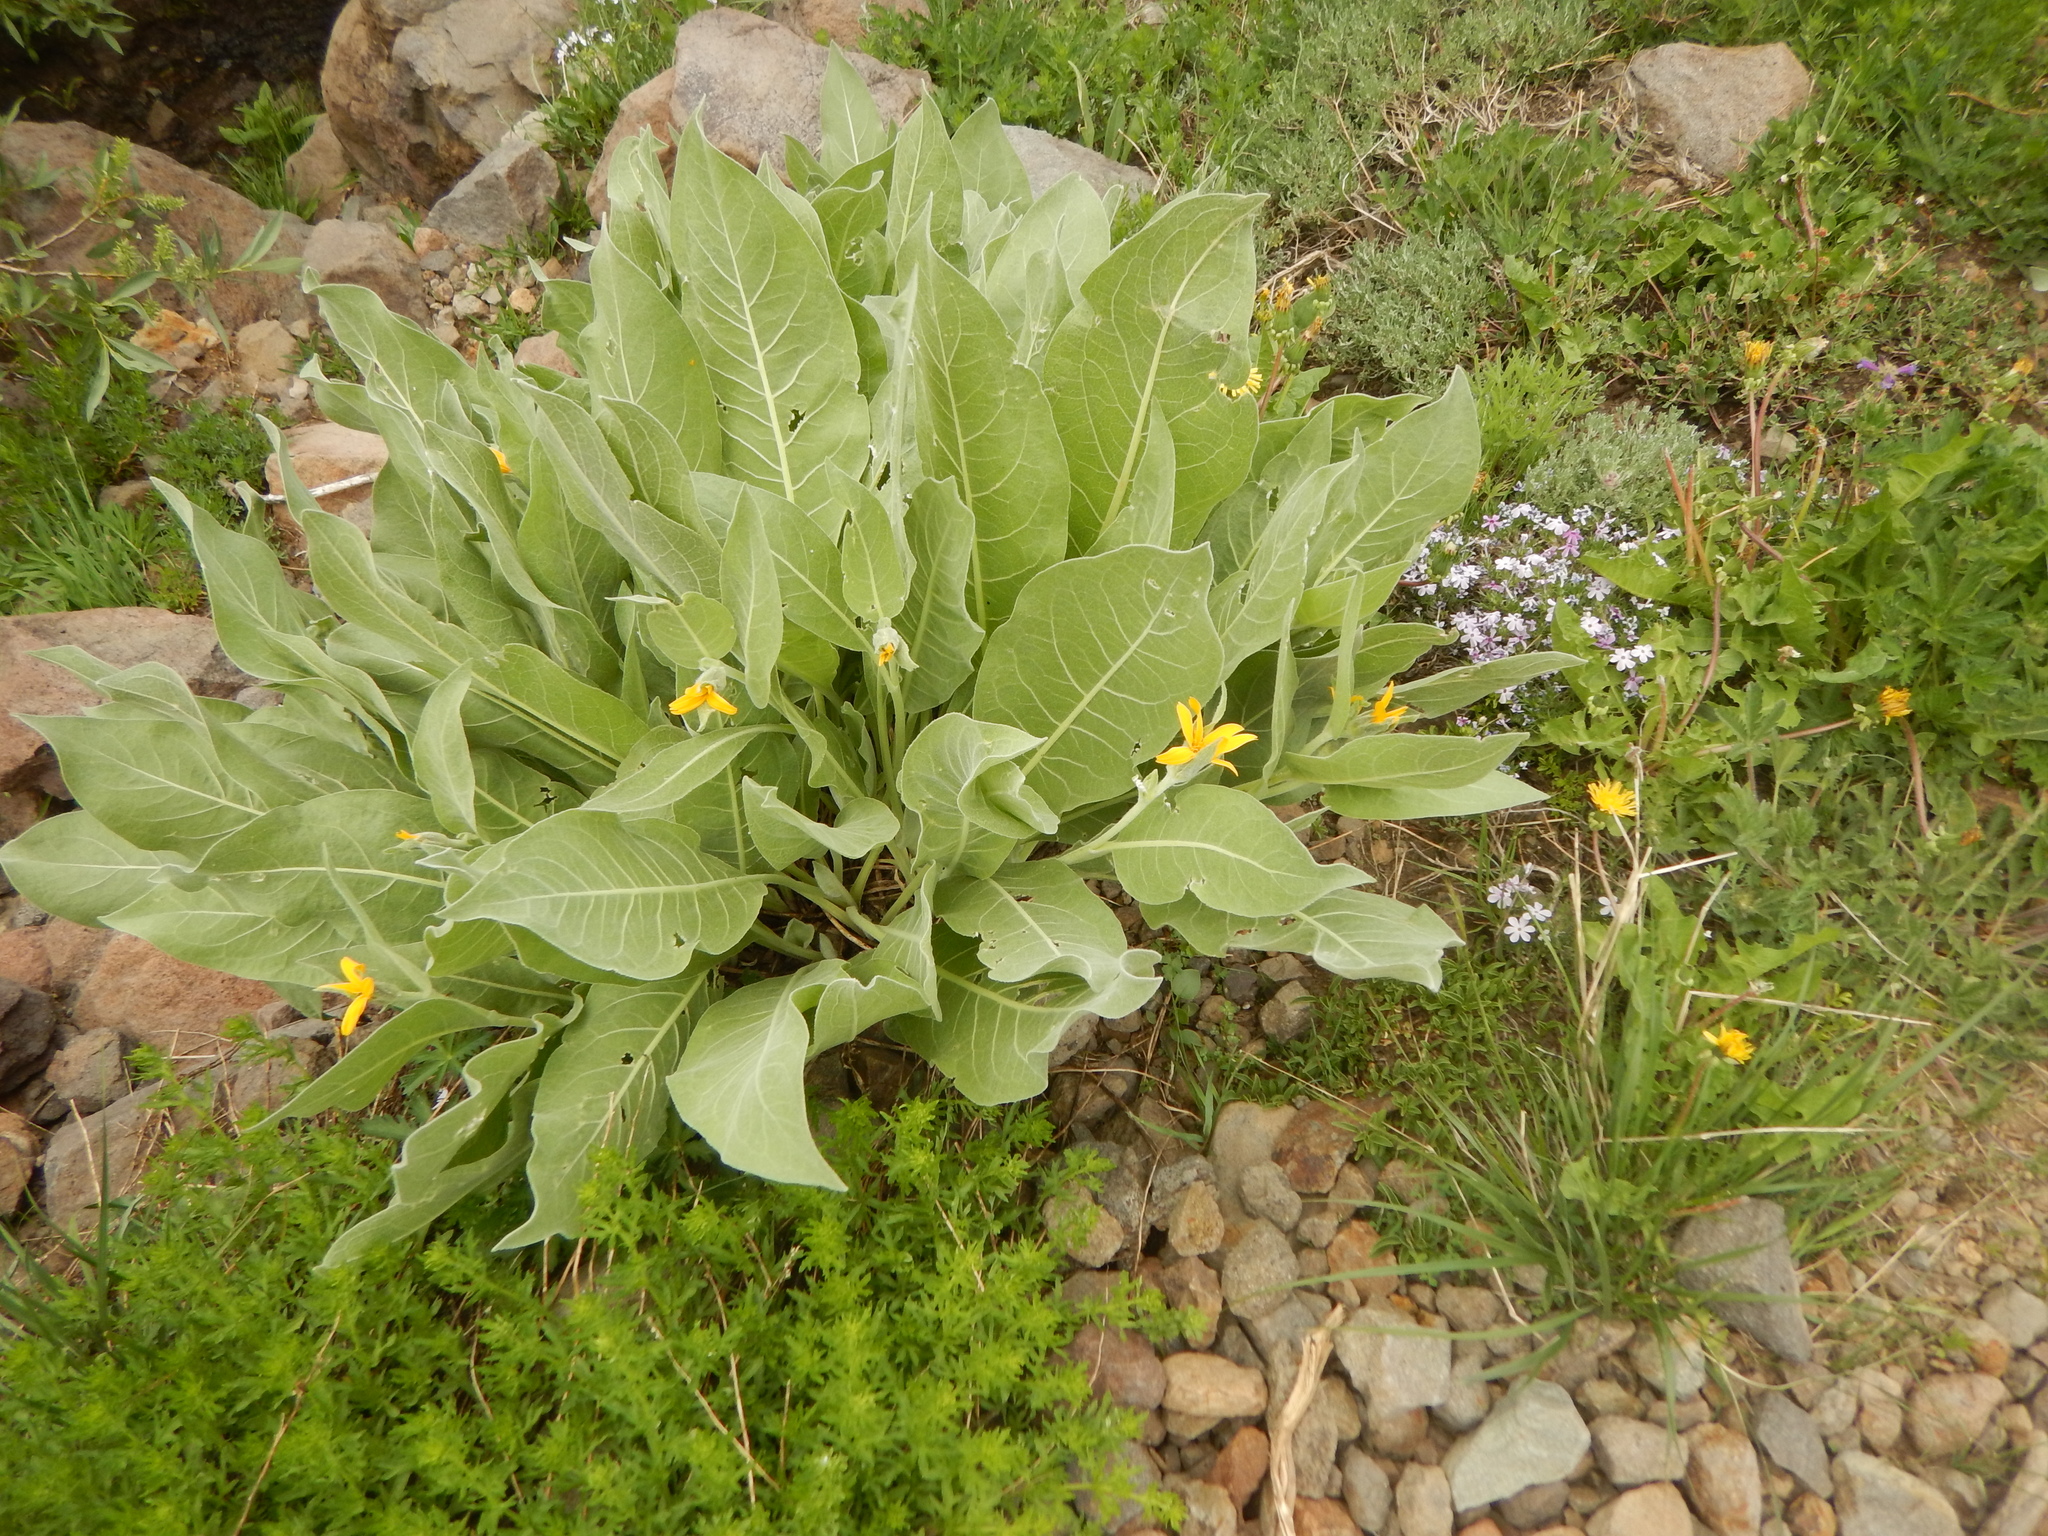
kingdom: Plantae
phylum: Tracheophyta
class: Magnoliopsida
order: Asterales
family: Asteraceae
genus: Wyethia
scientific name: Wyethia mollis
